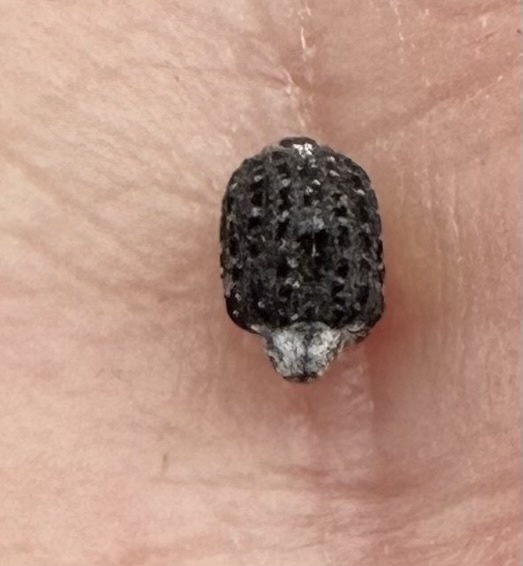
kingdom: Animalia
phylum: Arthropoda
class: Insecta
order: Coleoptera
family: Curculionidae
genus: Cionus
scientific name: Cionus scrophulariae
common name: Common figwort weevil
